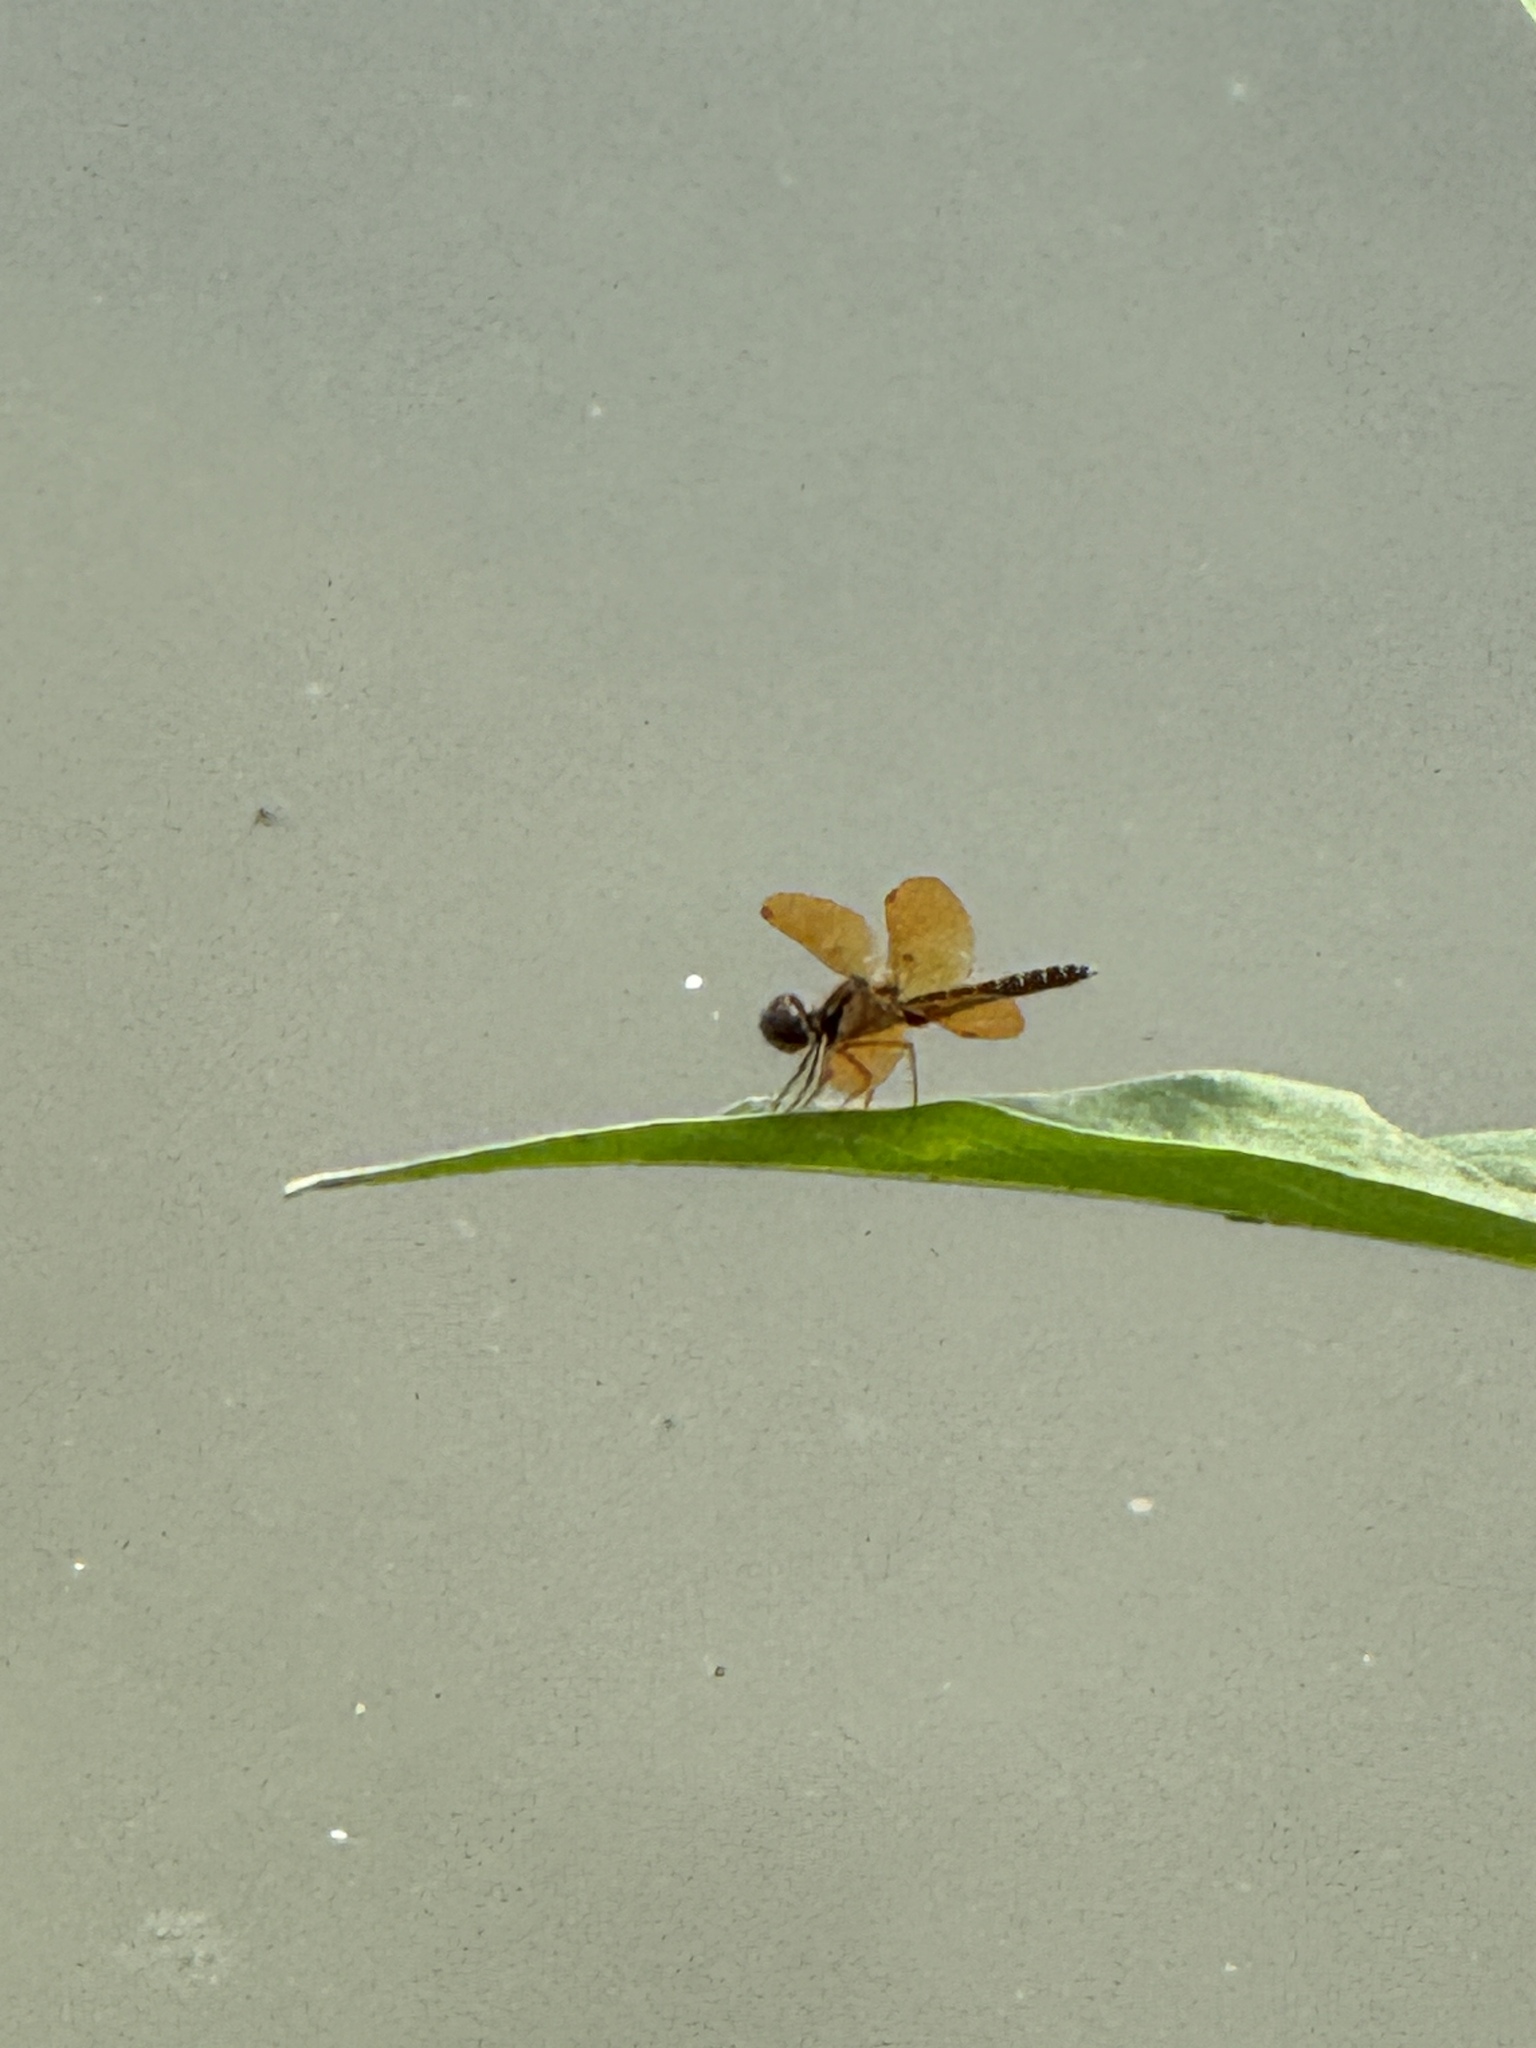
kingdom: Animalia
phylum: Arthropoda
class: Insecta
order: Odonata
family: Libellulidae
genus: Perithemis
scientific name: Perithemis tenera
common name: Eastern amberwing
